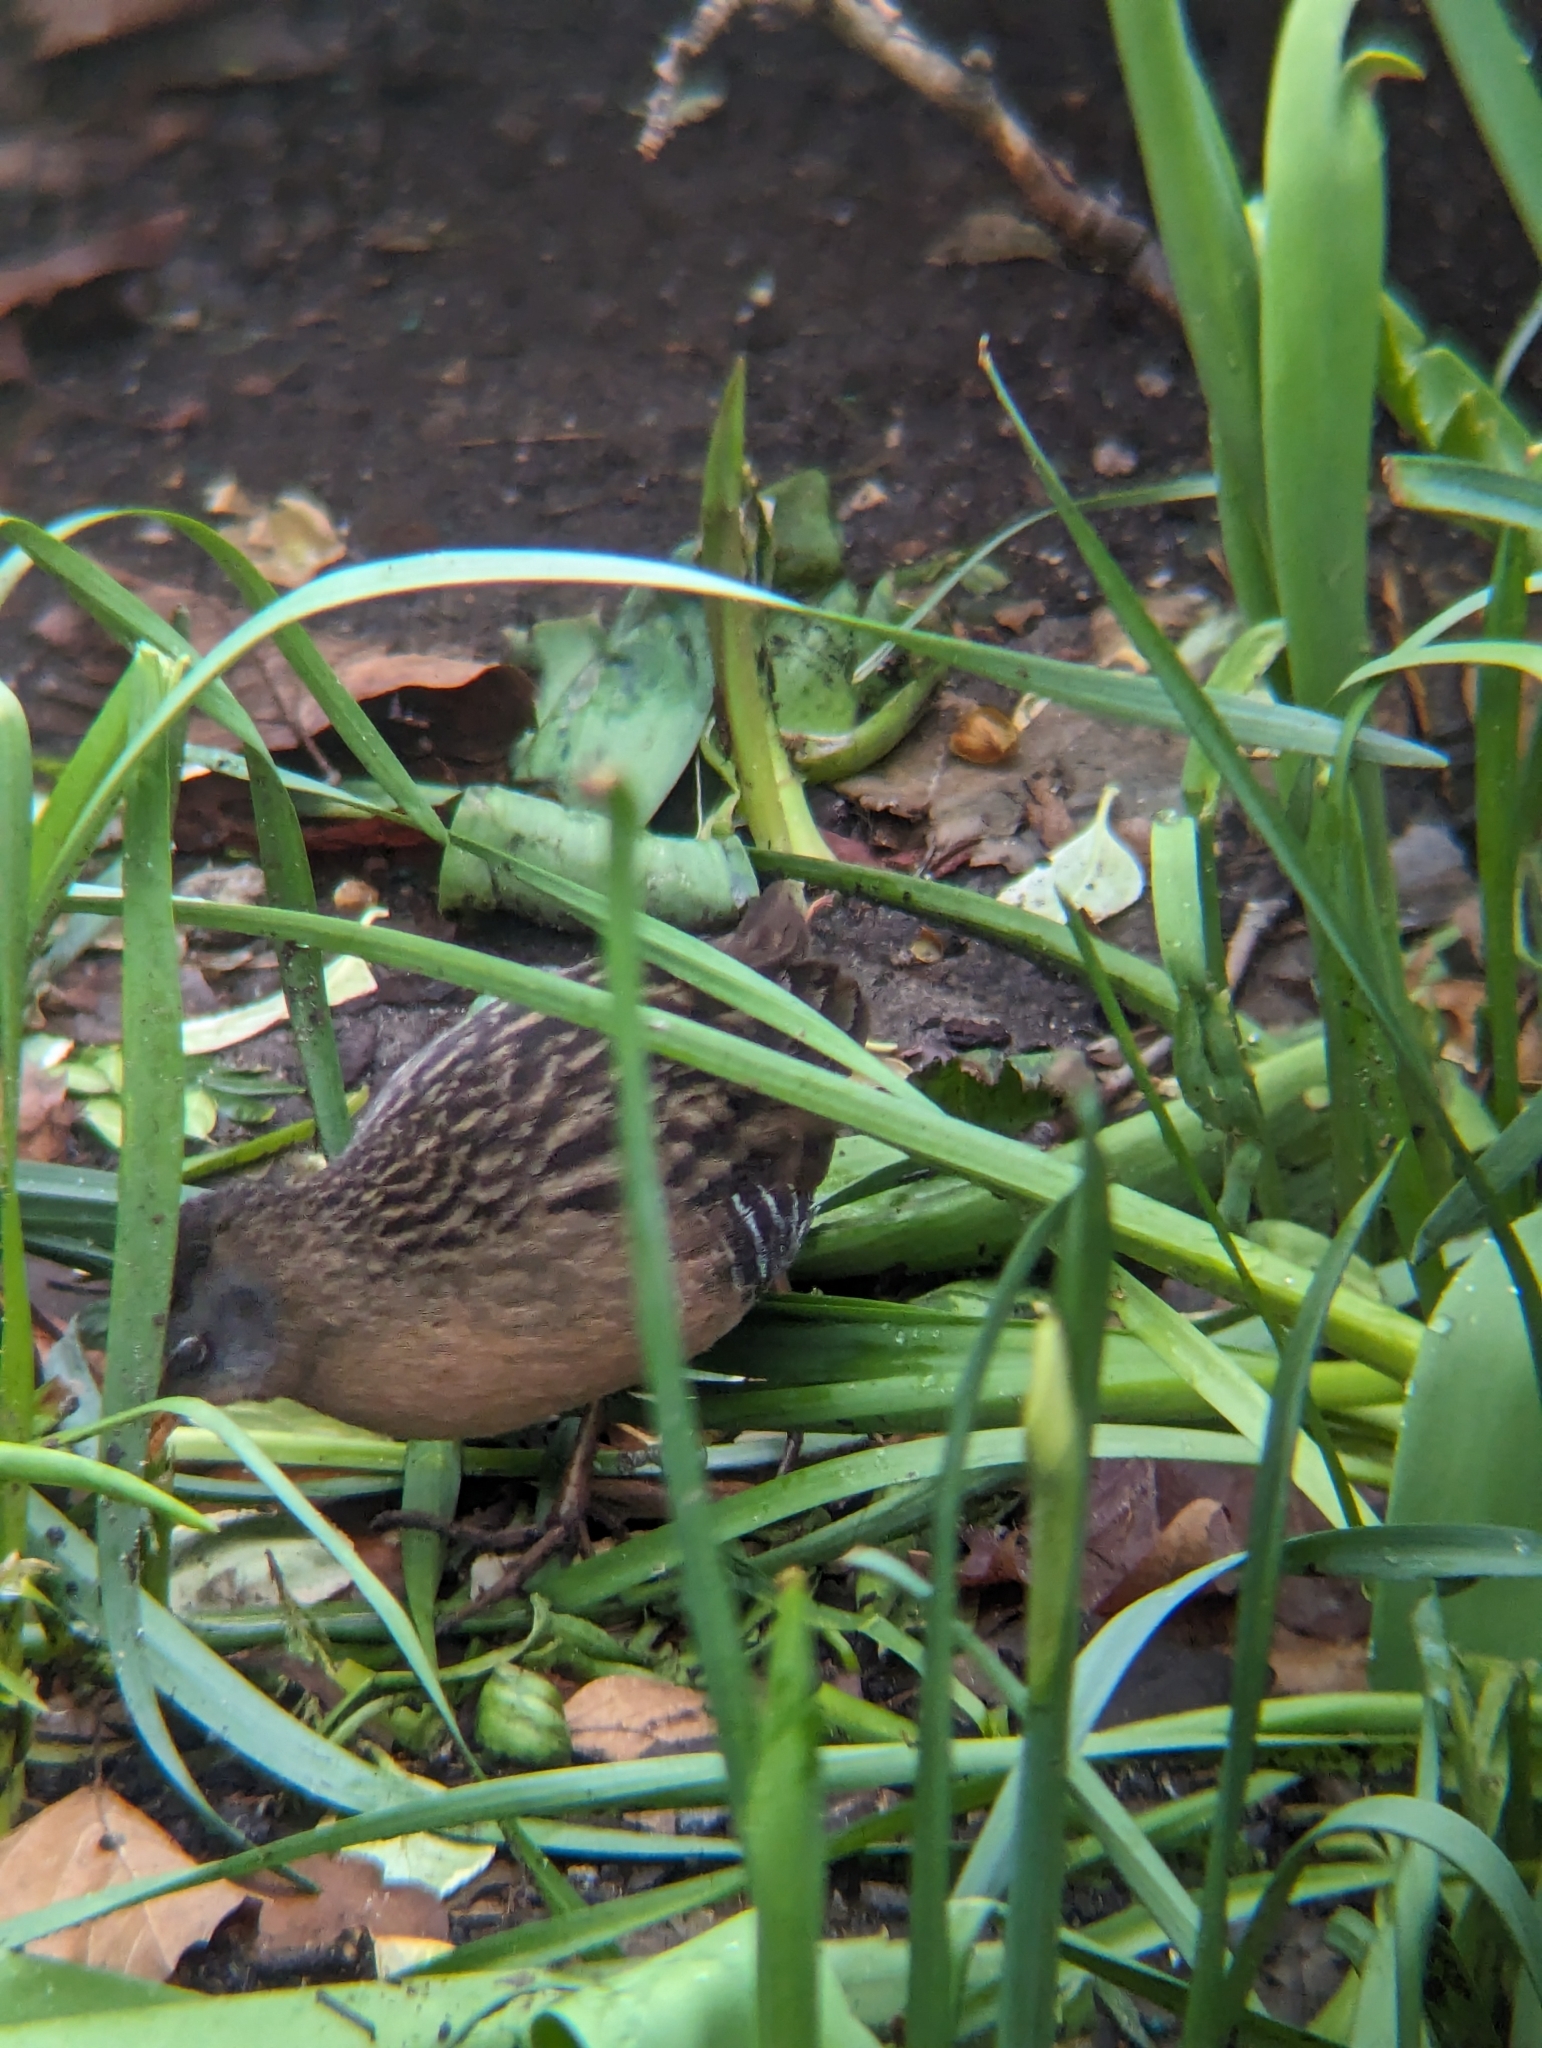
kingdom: Animalia
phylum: Chordata
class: Aves
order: Gruiformes
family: Rallidae
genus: Rallus
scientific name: Rallus limicola
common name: Virginia rail
